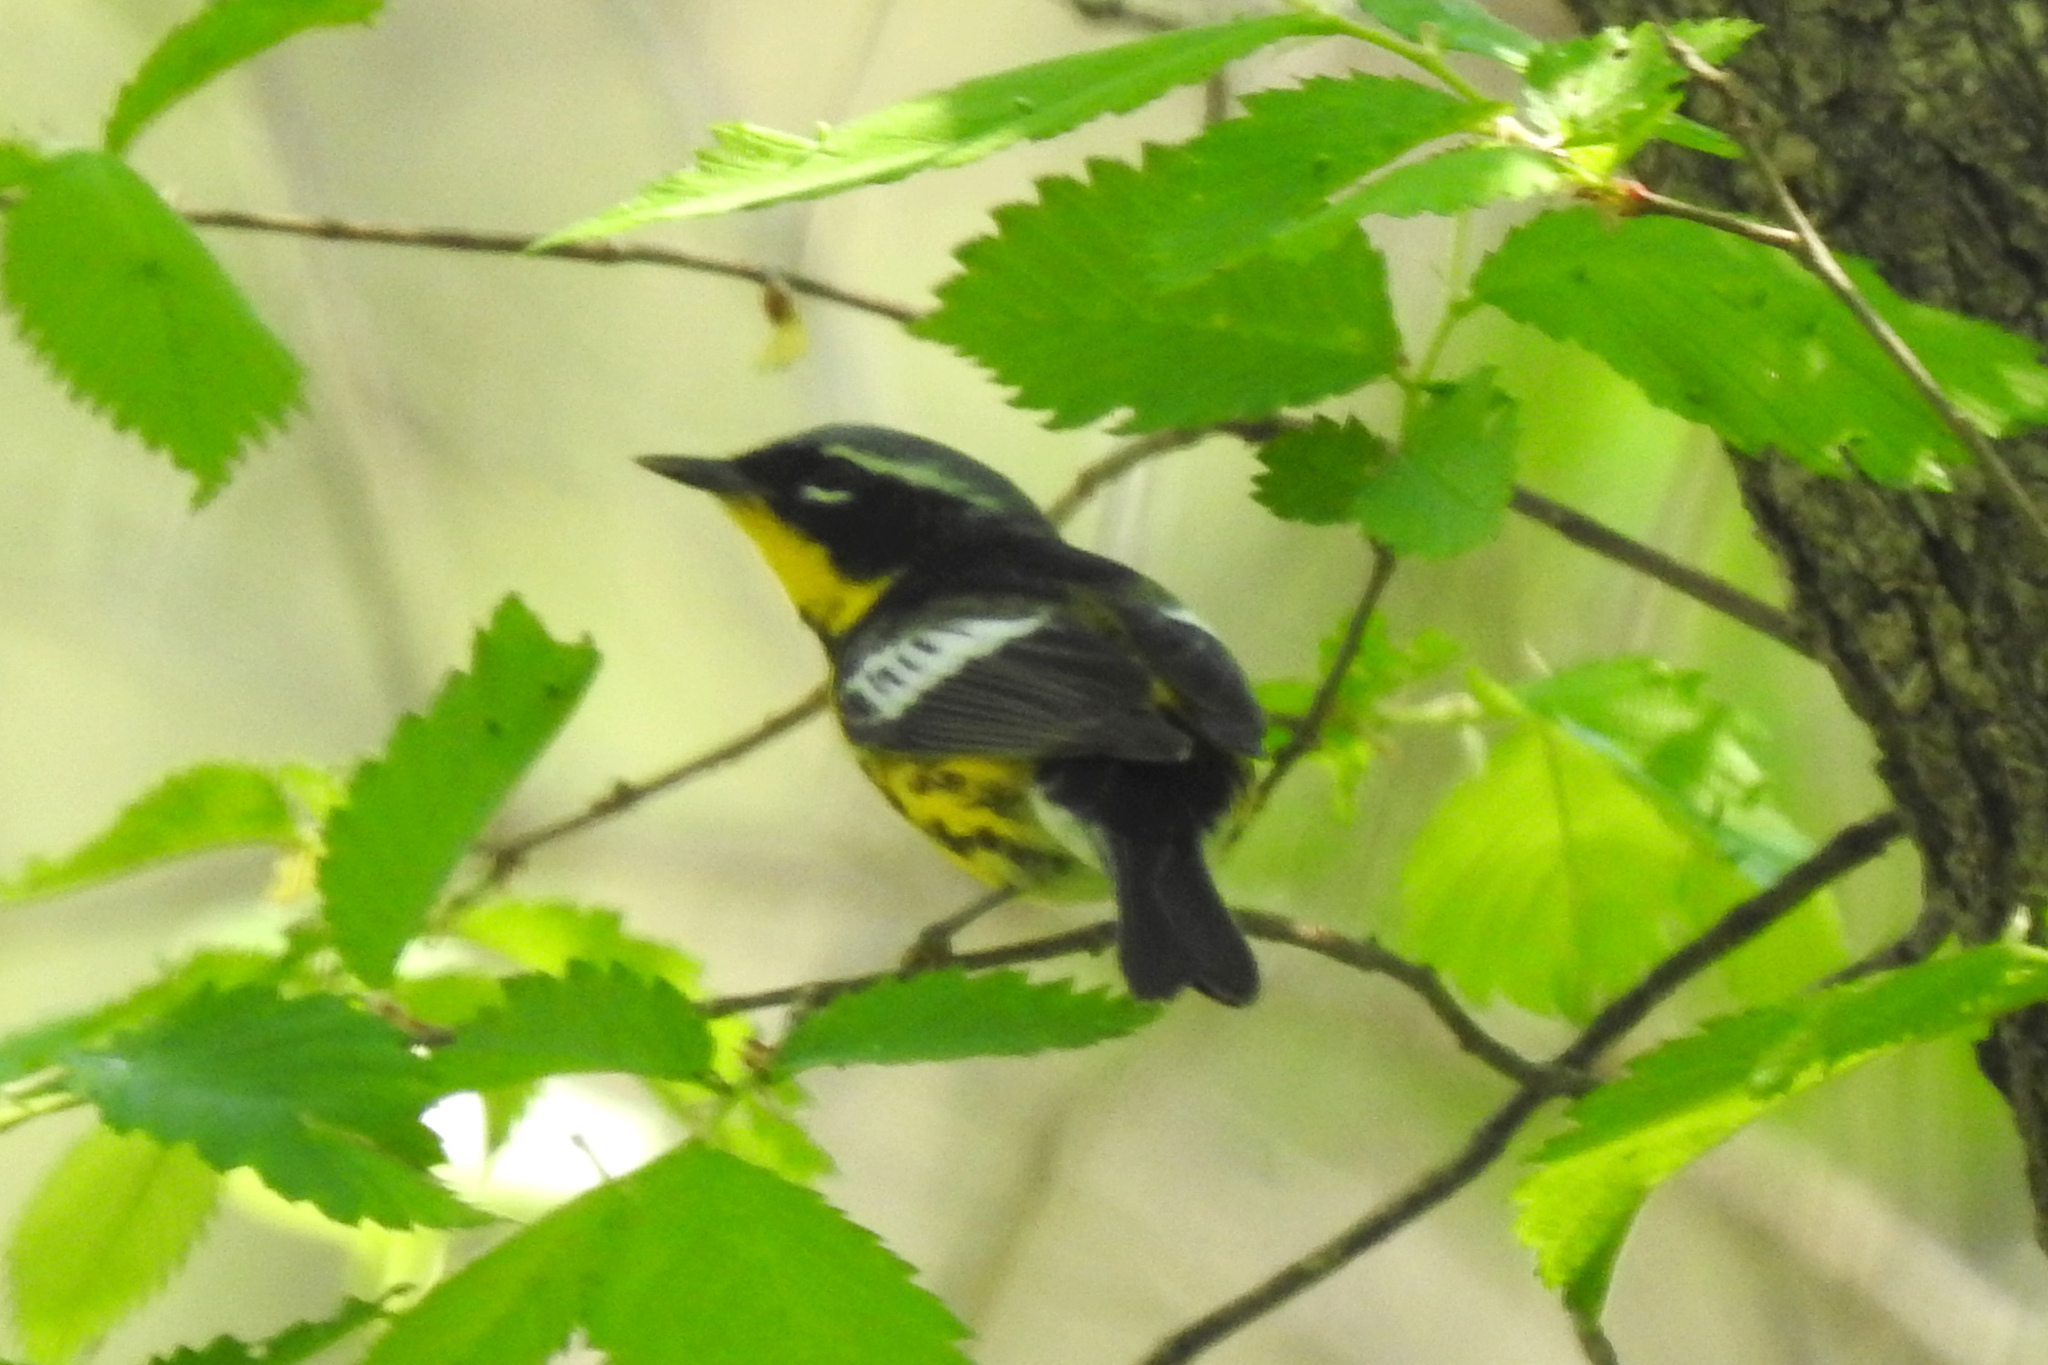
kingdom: Animalia
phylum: Chordata
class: Aves
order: Passeriformes
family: Parulidae
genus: Setophaga
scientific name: Setophaga magnolia
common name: Magnolia warbler
